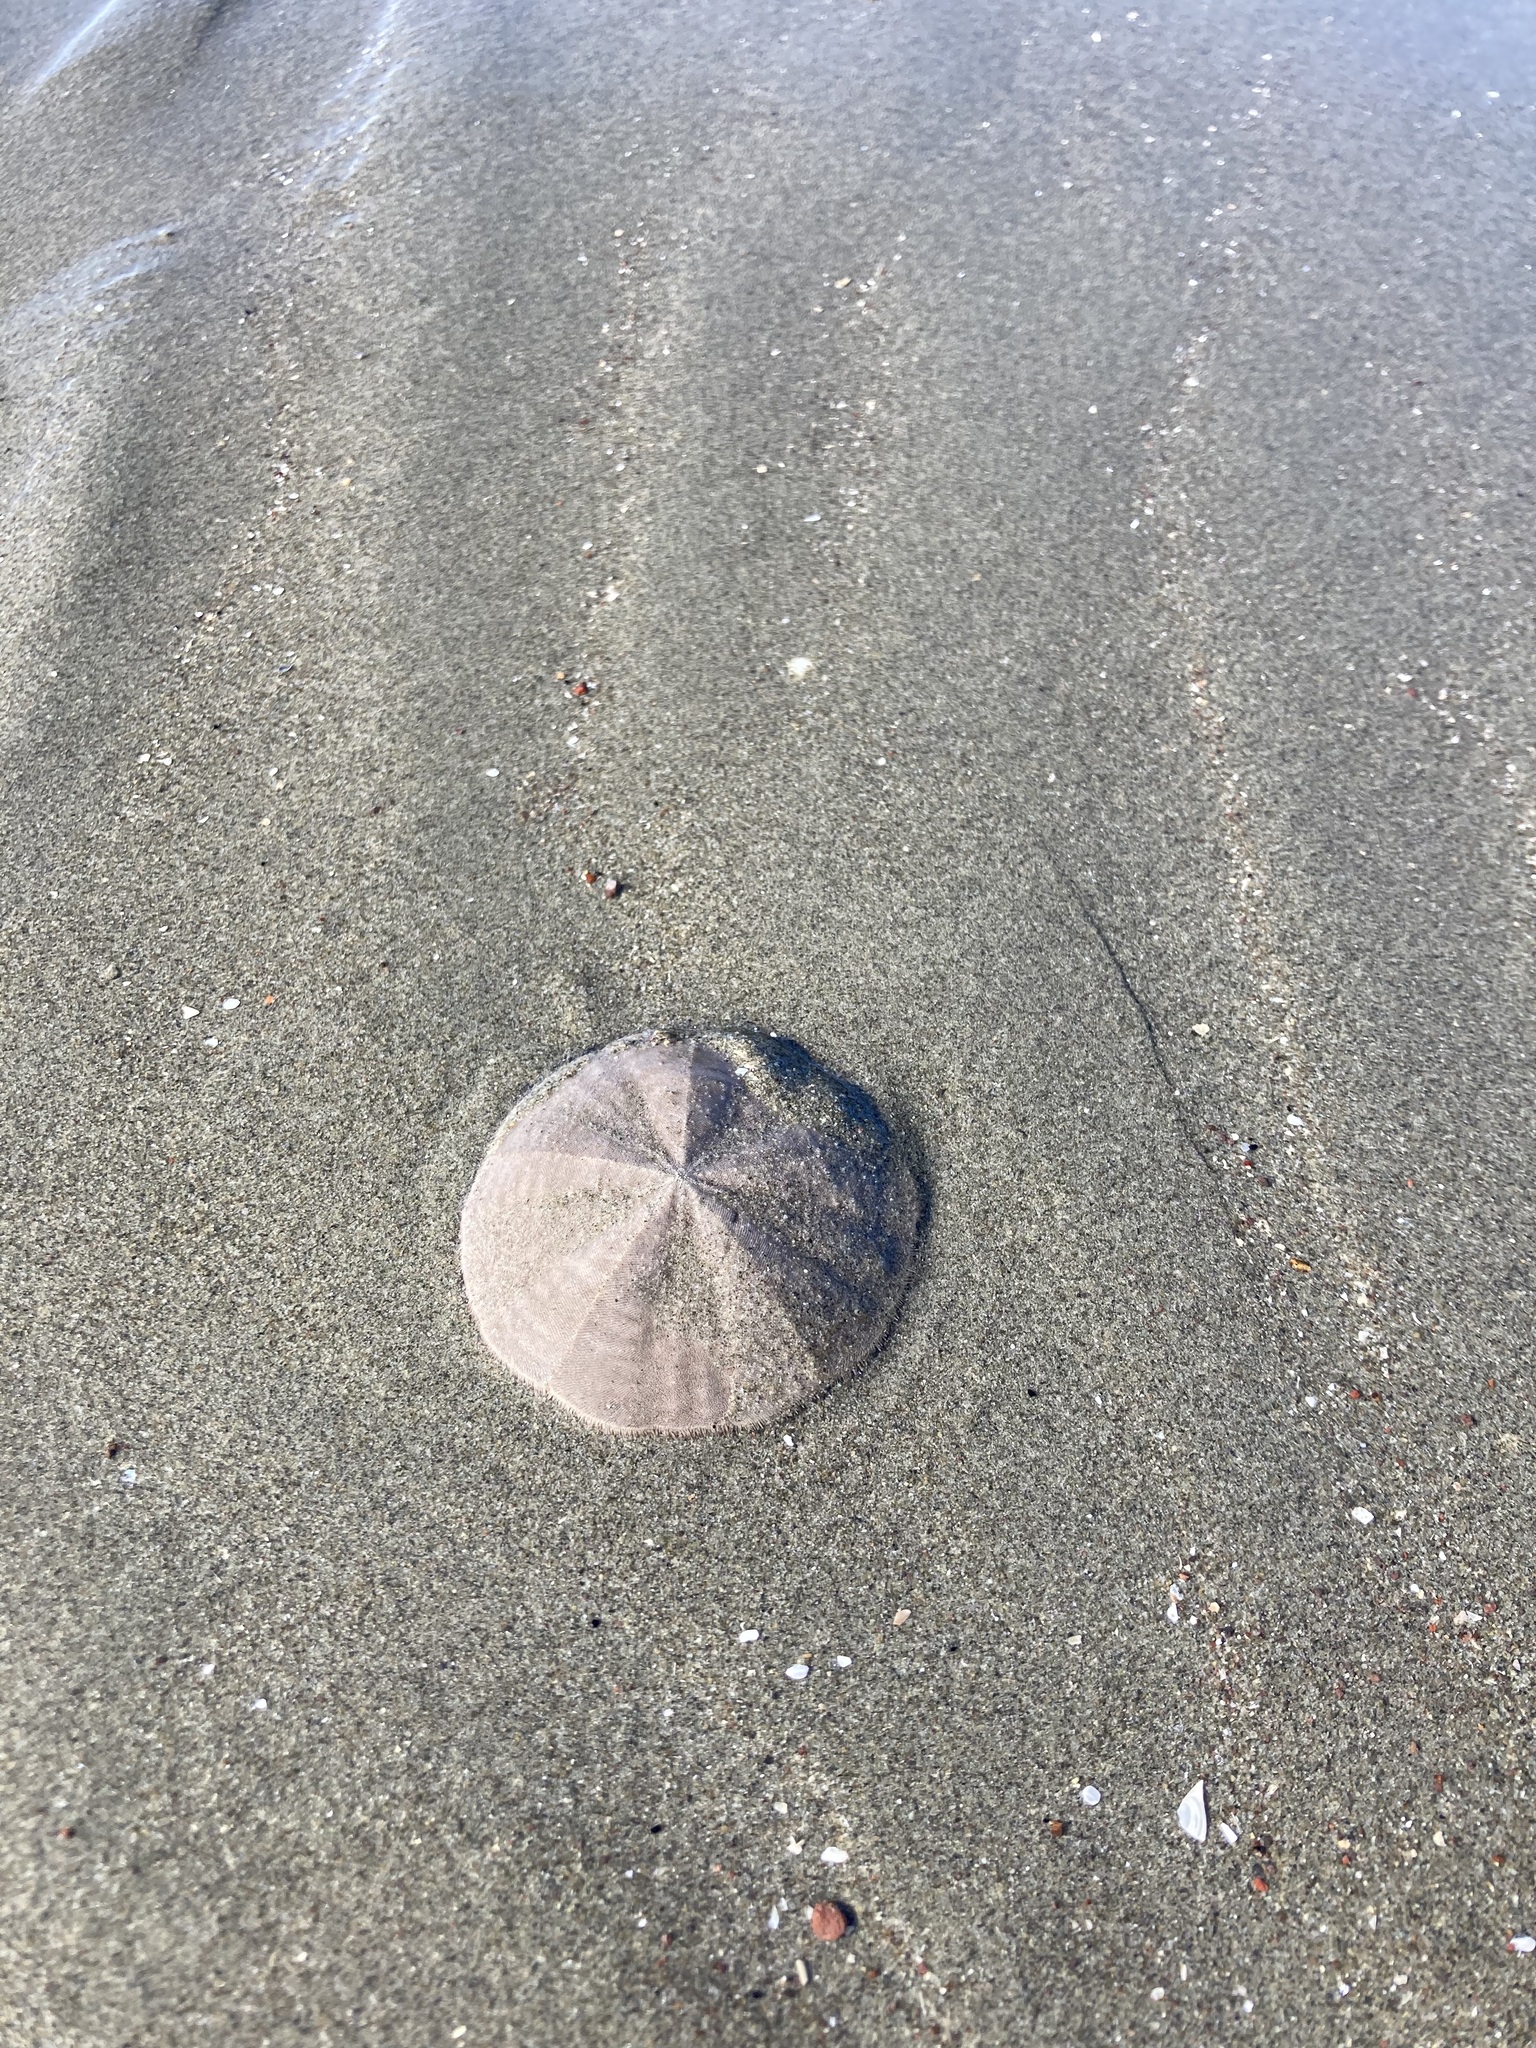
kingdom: Animalia
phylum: Echinodermata
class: Echinoidea
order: Clypeasteroida
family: Clypeasteridae
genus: Fellaster
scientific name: Fellaster zelandiae
